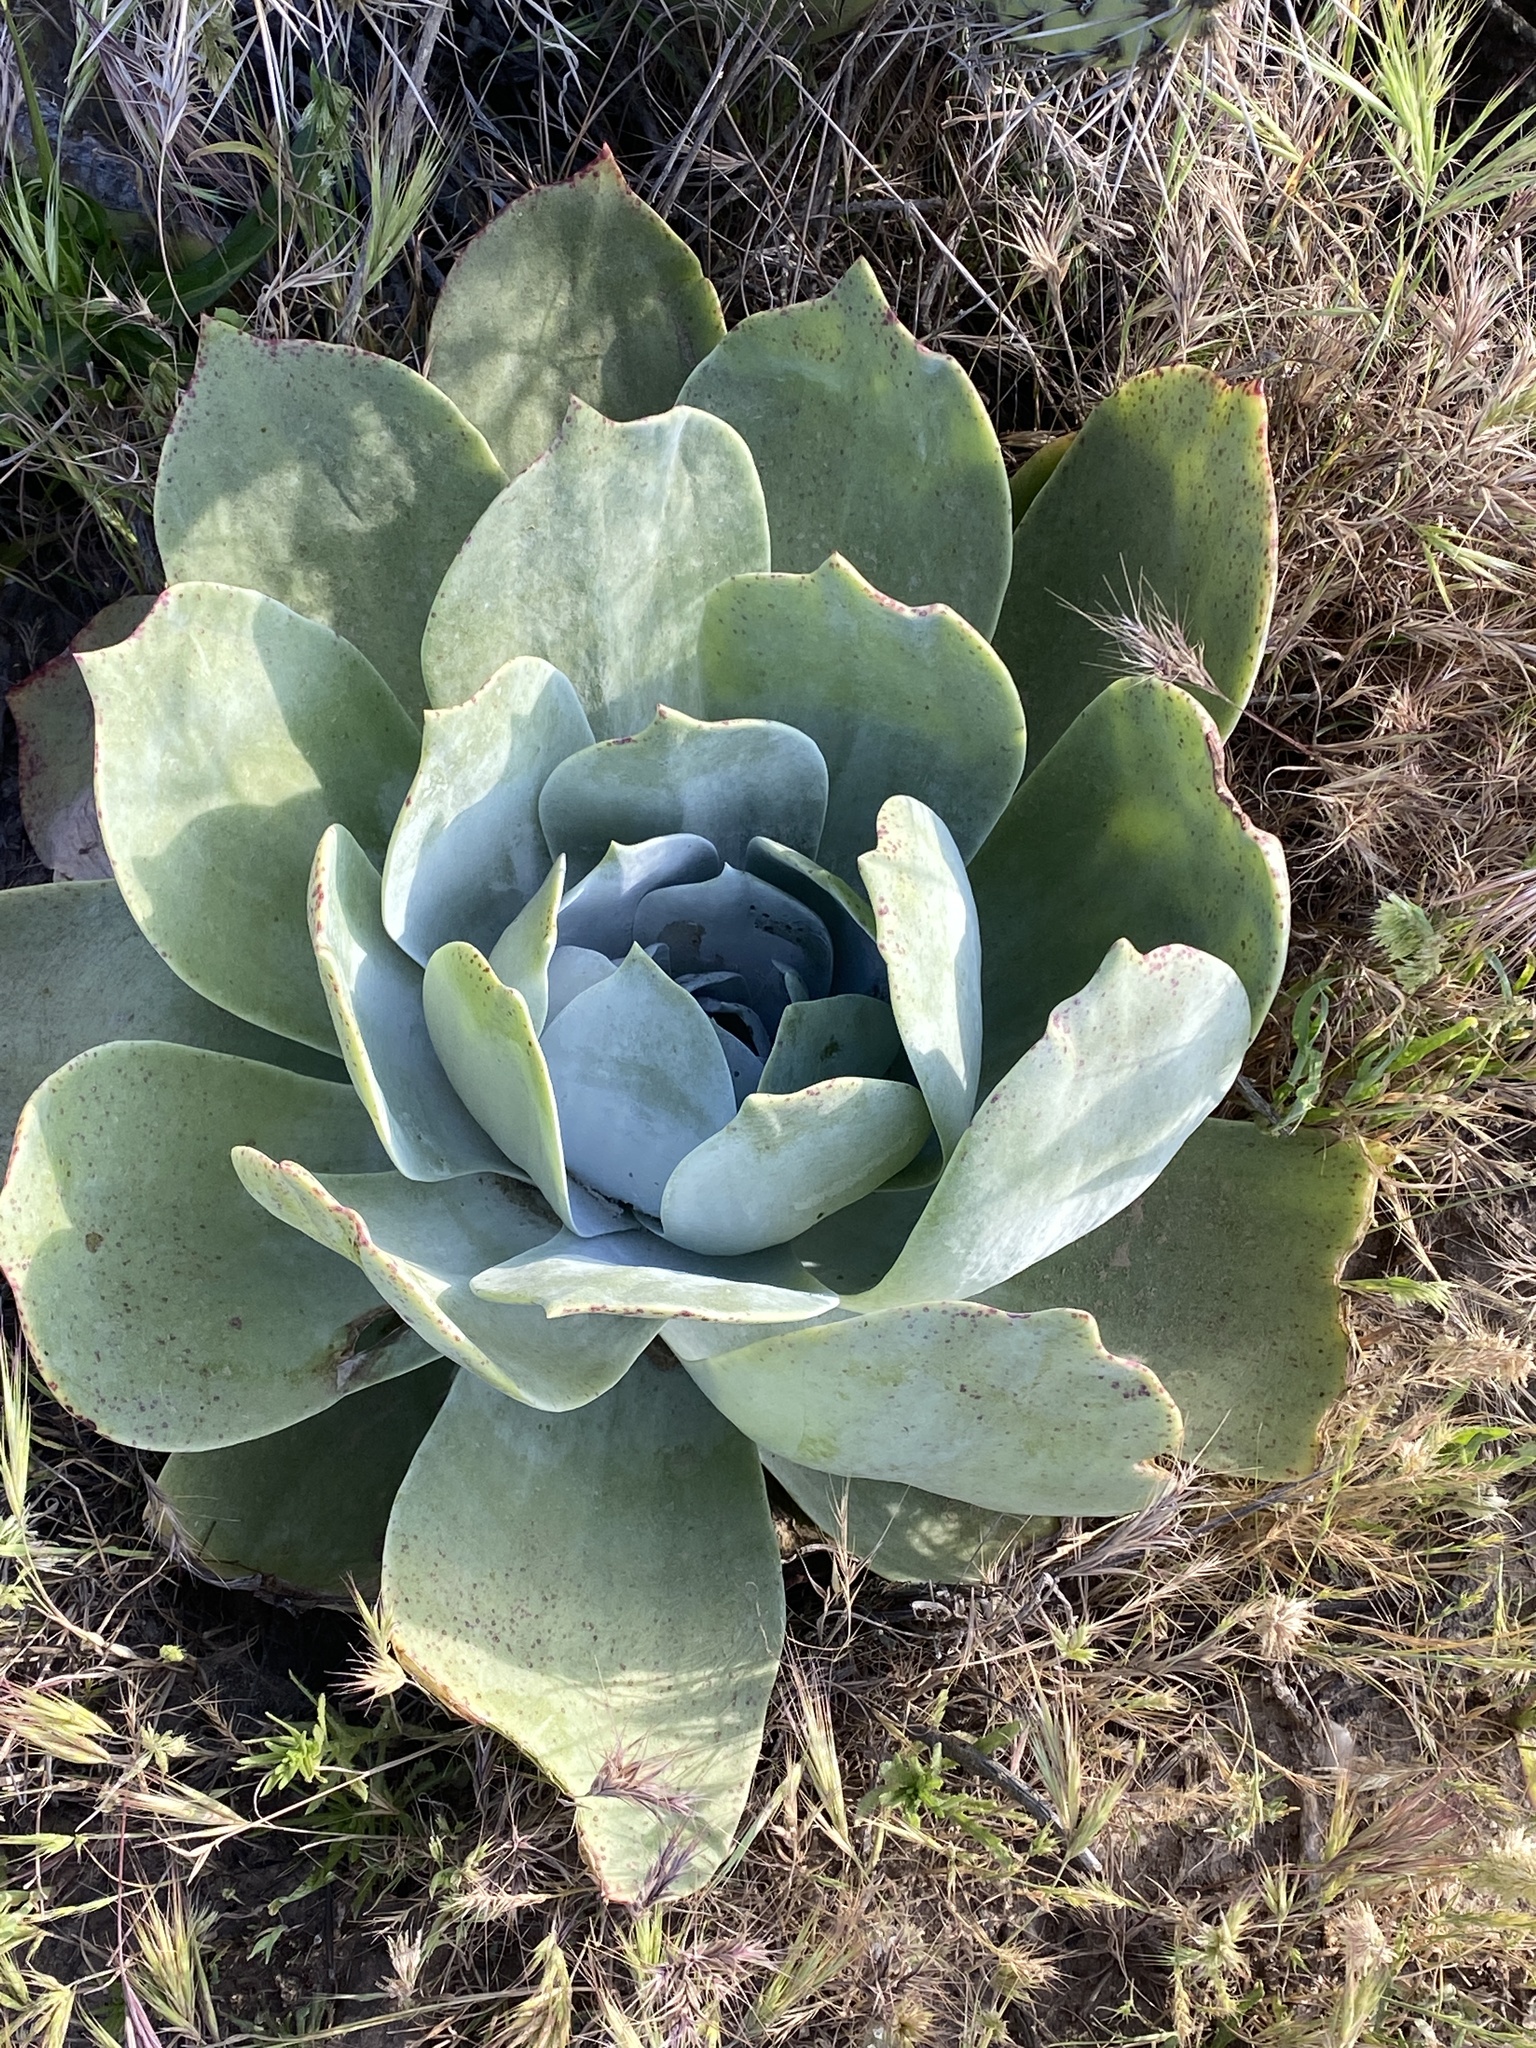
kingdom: Plantae
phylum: Tracheophyta
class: Magnoliopsida
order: Saxifragales
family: Crassulaceae
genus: Dudleya
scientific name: Dudleya pulverulenta
